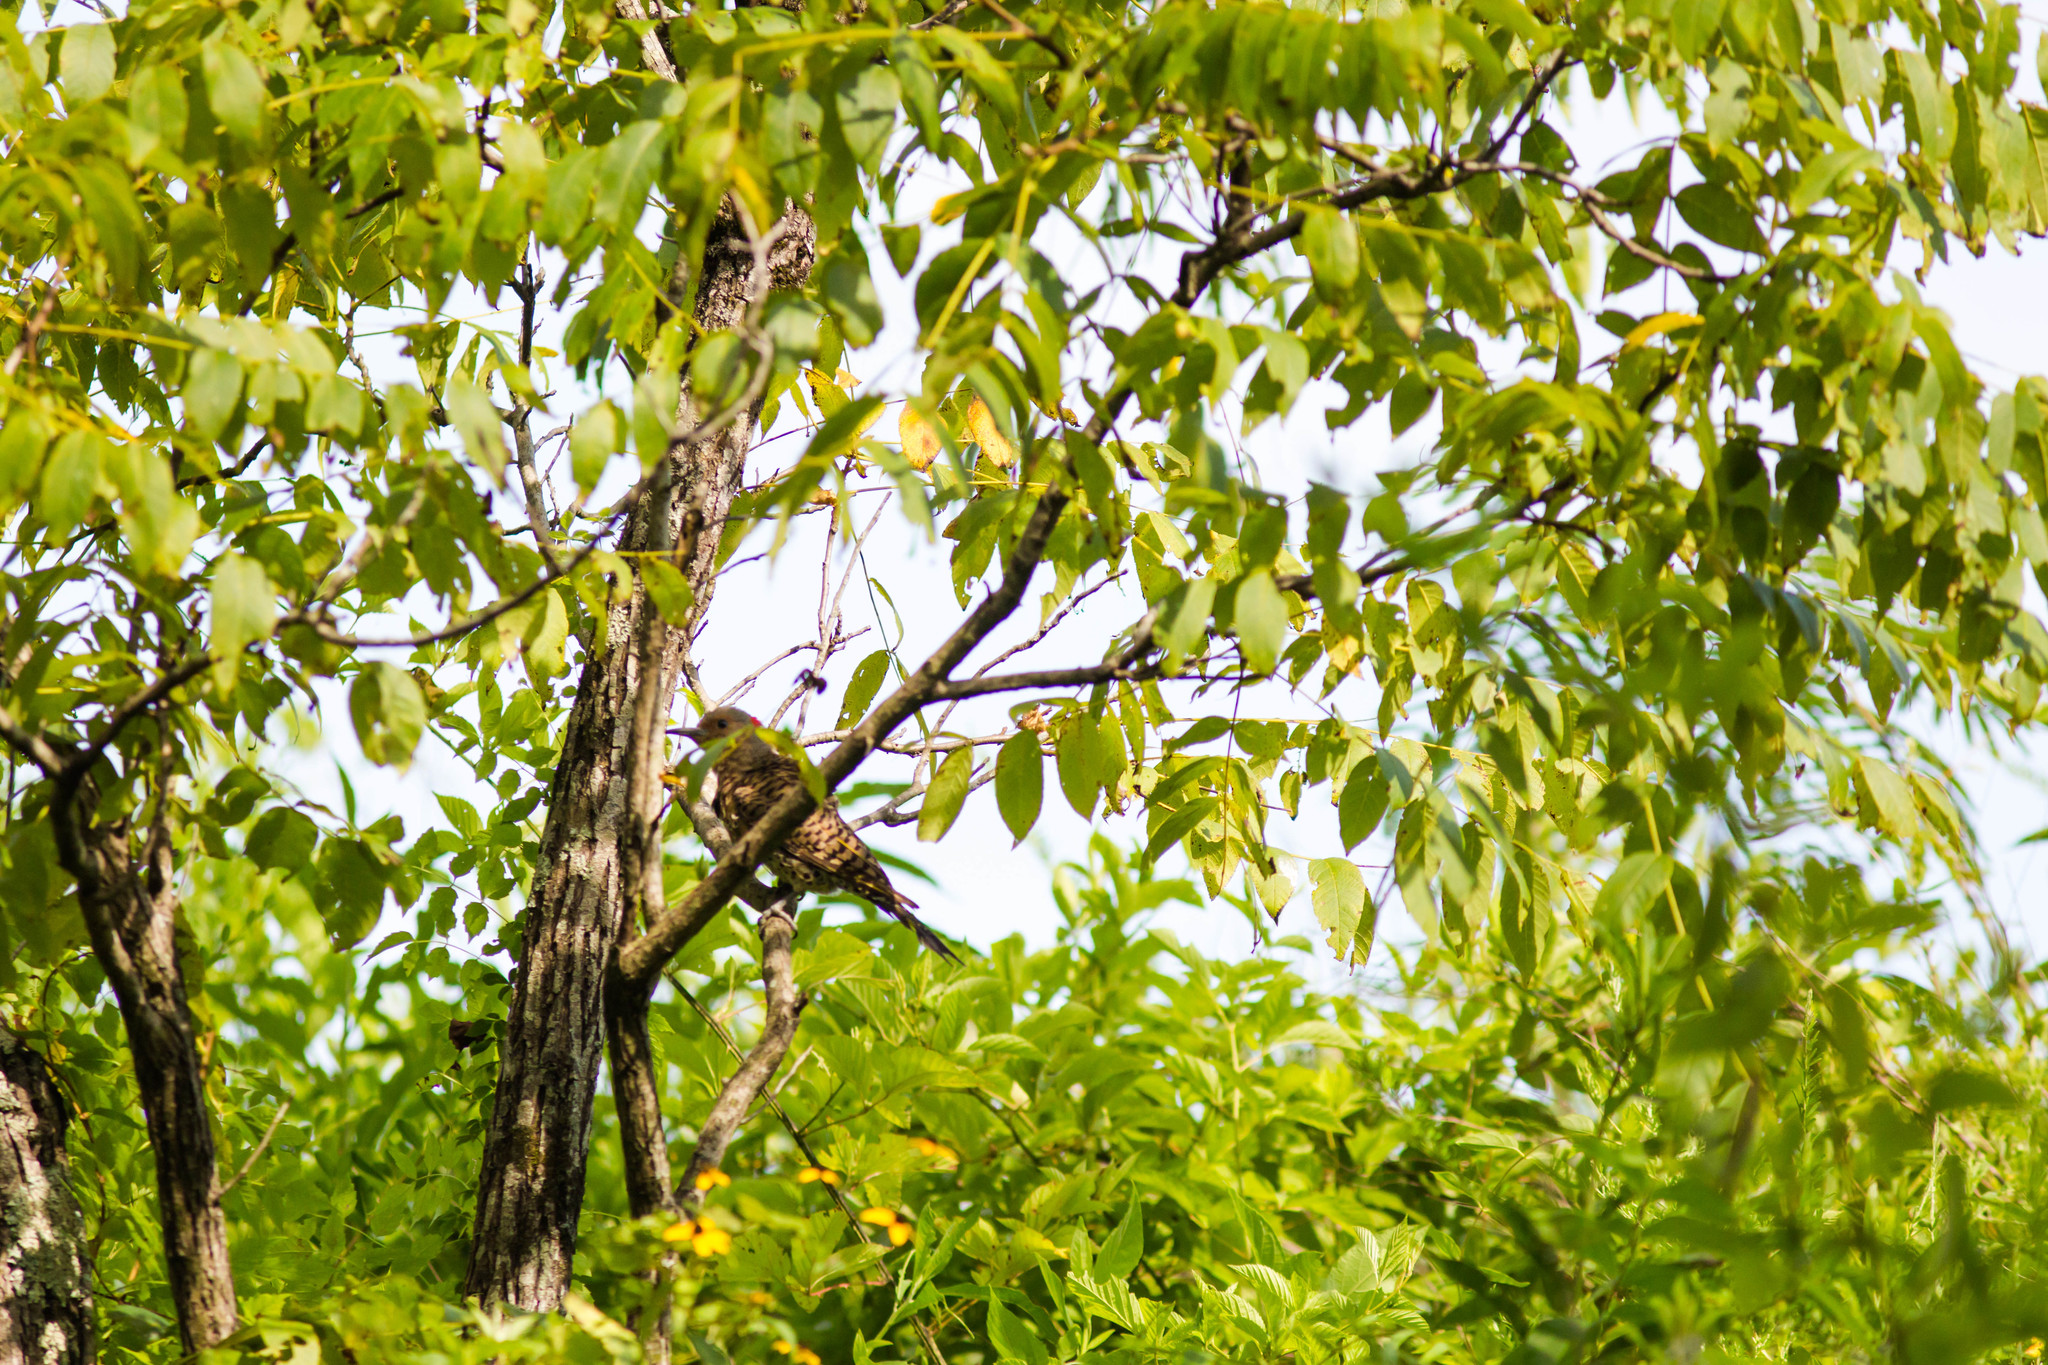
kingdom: Animalia
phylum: Chordata
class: Aves
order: Piciformes
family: Picidae
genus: Colaptes
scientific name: Colaptes auratus
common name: Northern flicker
